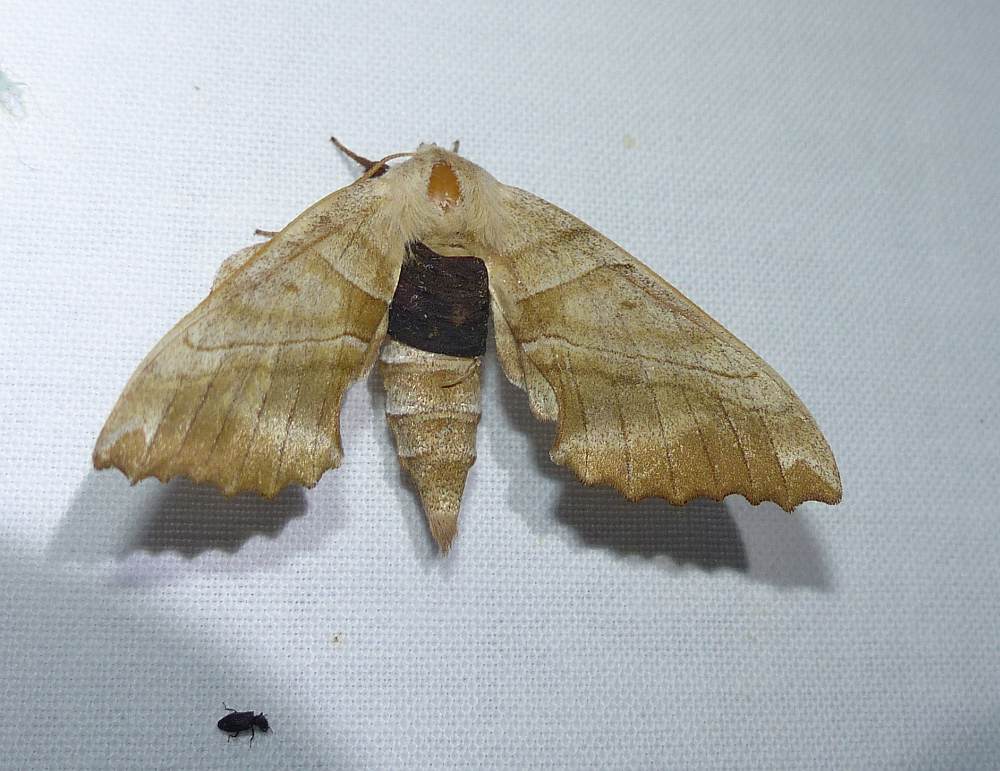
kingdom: Animalia
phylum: Arthropoda
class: Insecta
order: Lepidoptera
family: Sphingidae
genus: Amorpha
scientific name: Amorpha juglandis
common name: Walnut sphinx
